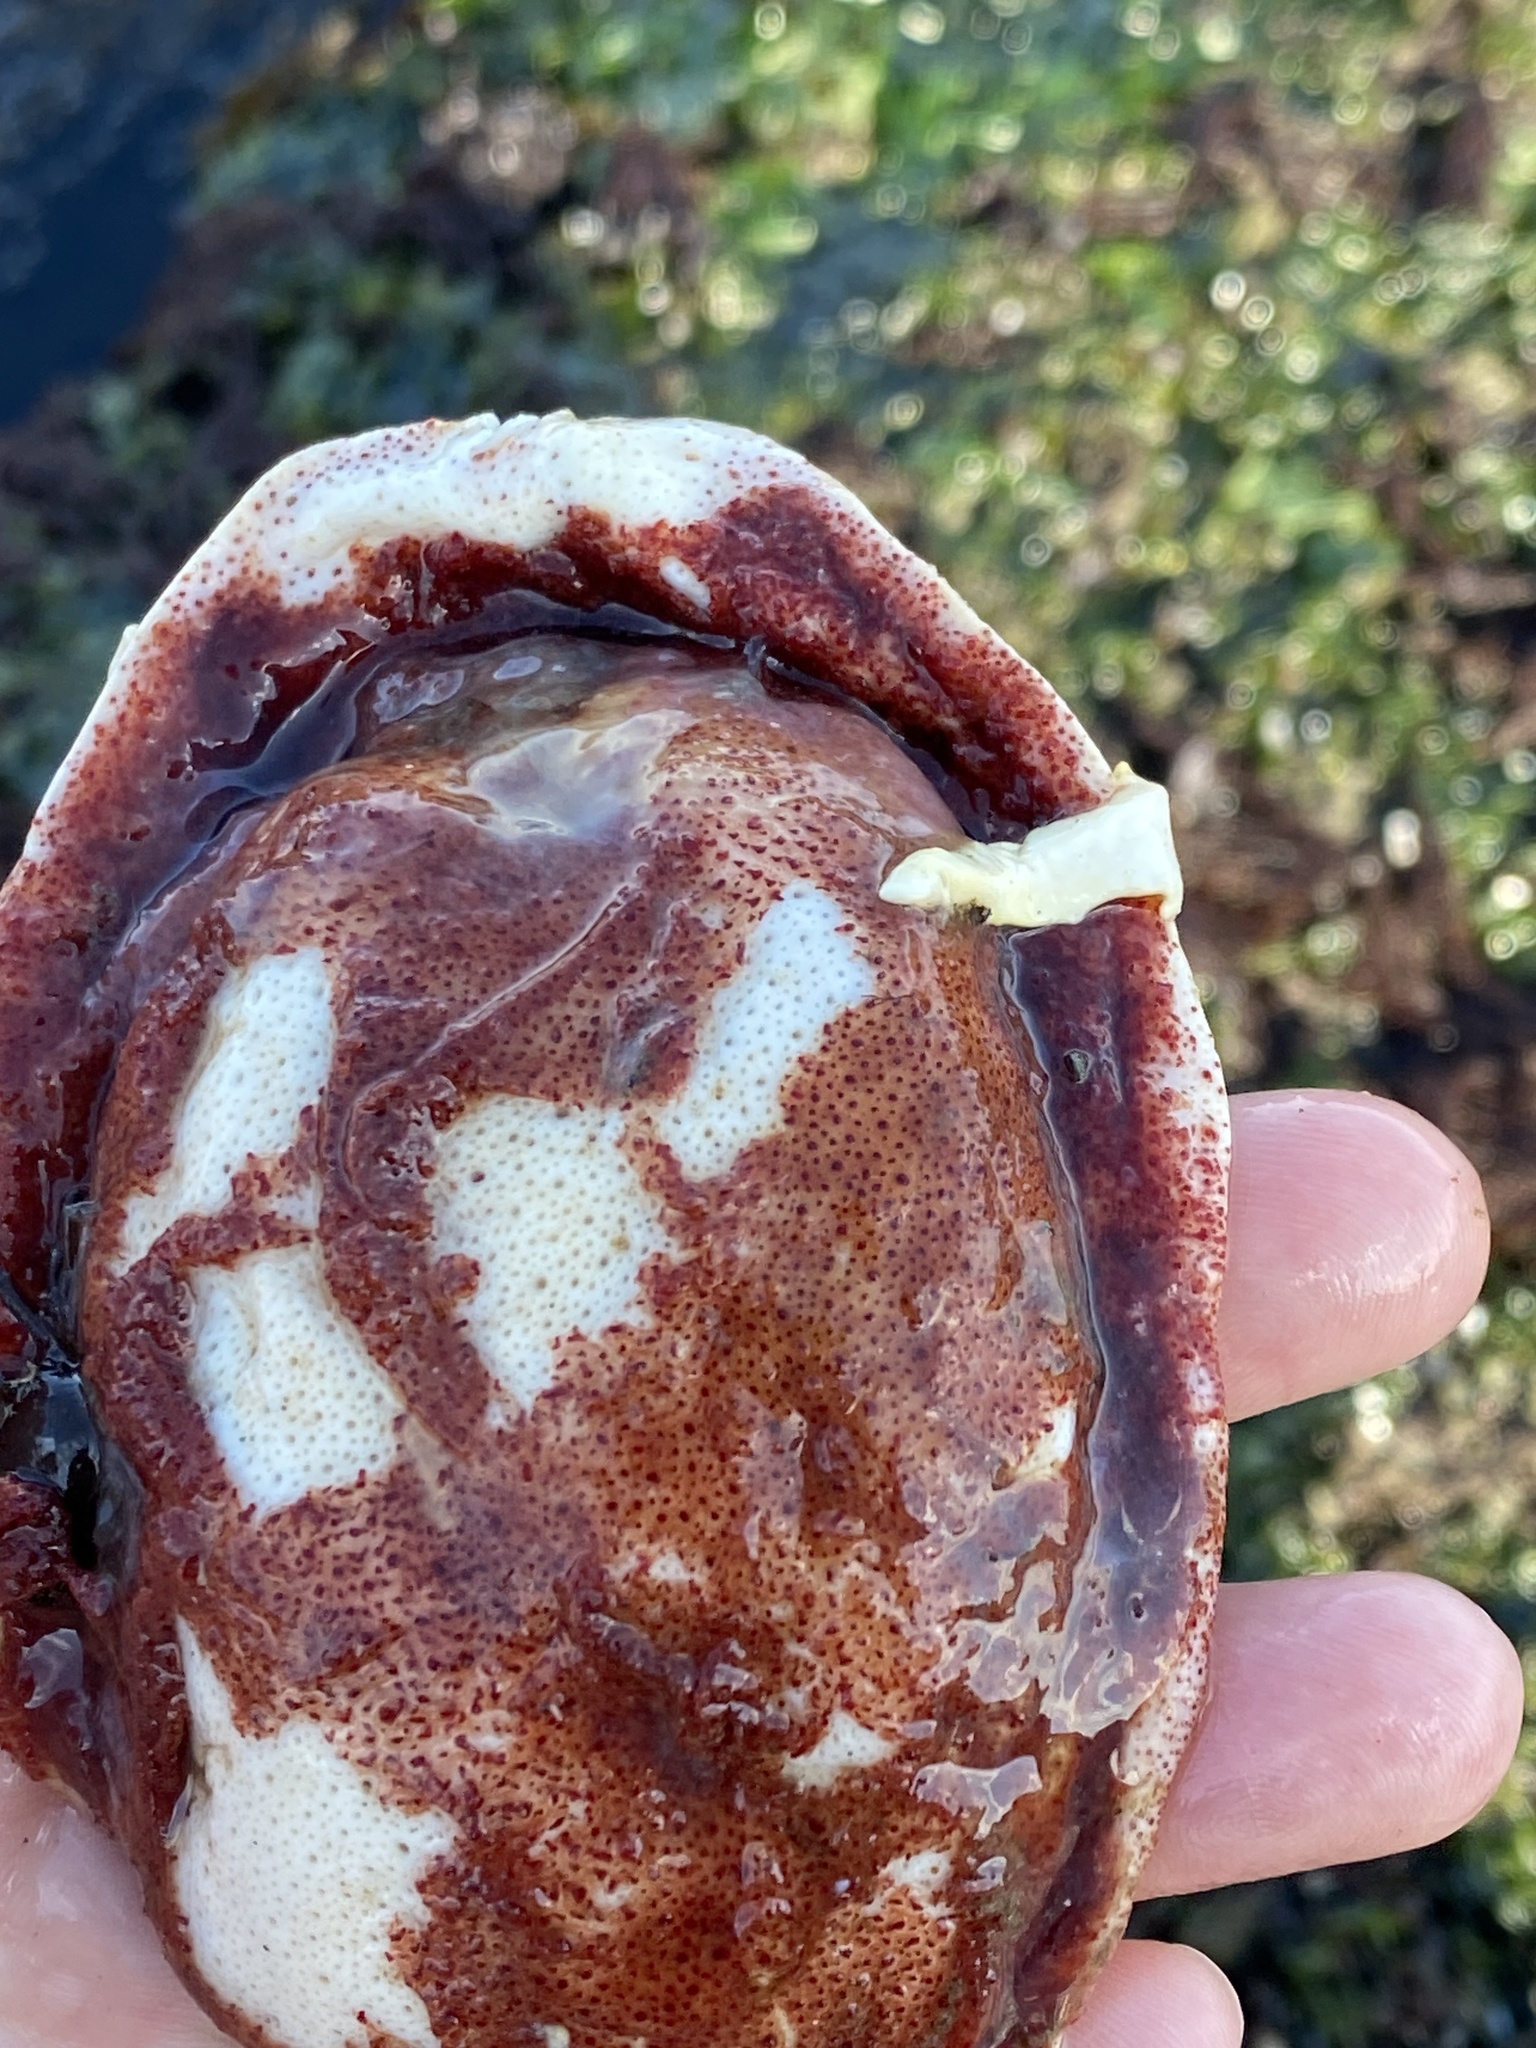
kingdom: Animalia
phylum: Mollusca
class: Polyplacophora
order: Chitonida
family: Acanthochitonidae
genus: Cryptochiton
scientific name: Cryptochiton stelleri
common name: Giant pacific chiton
